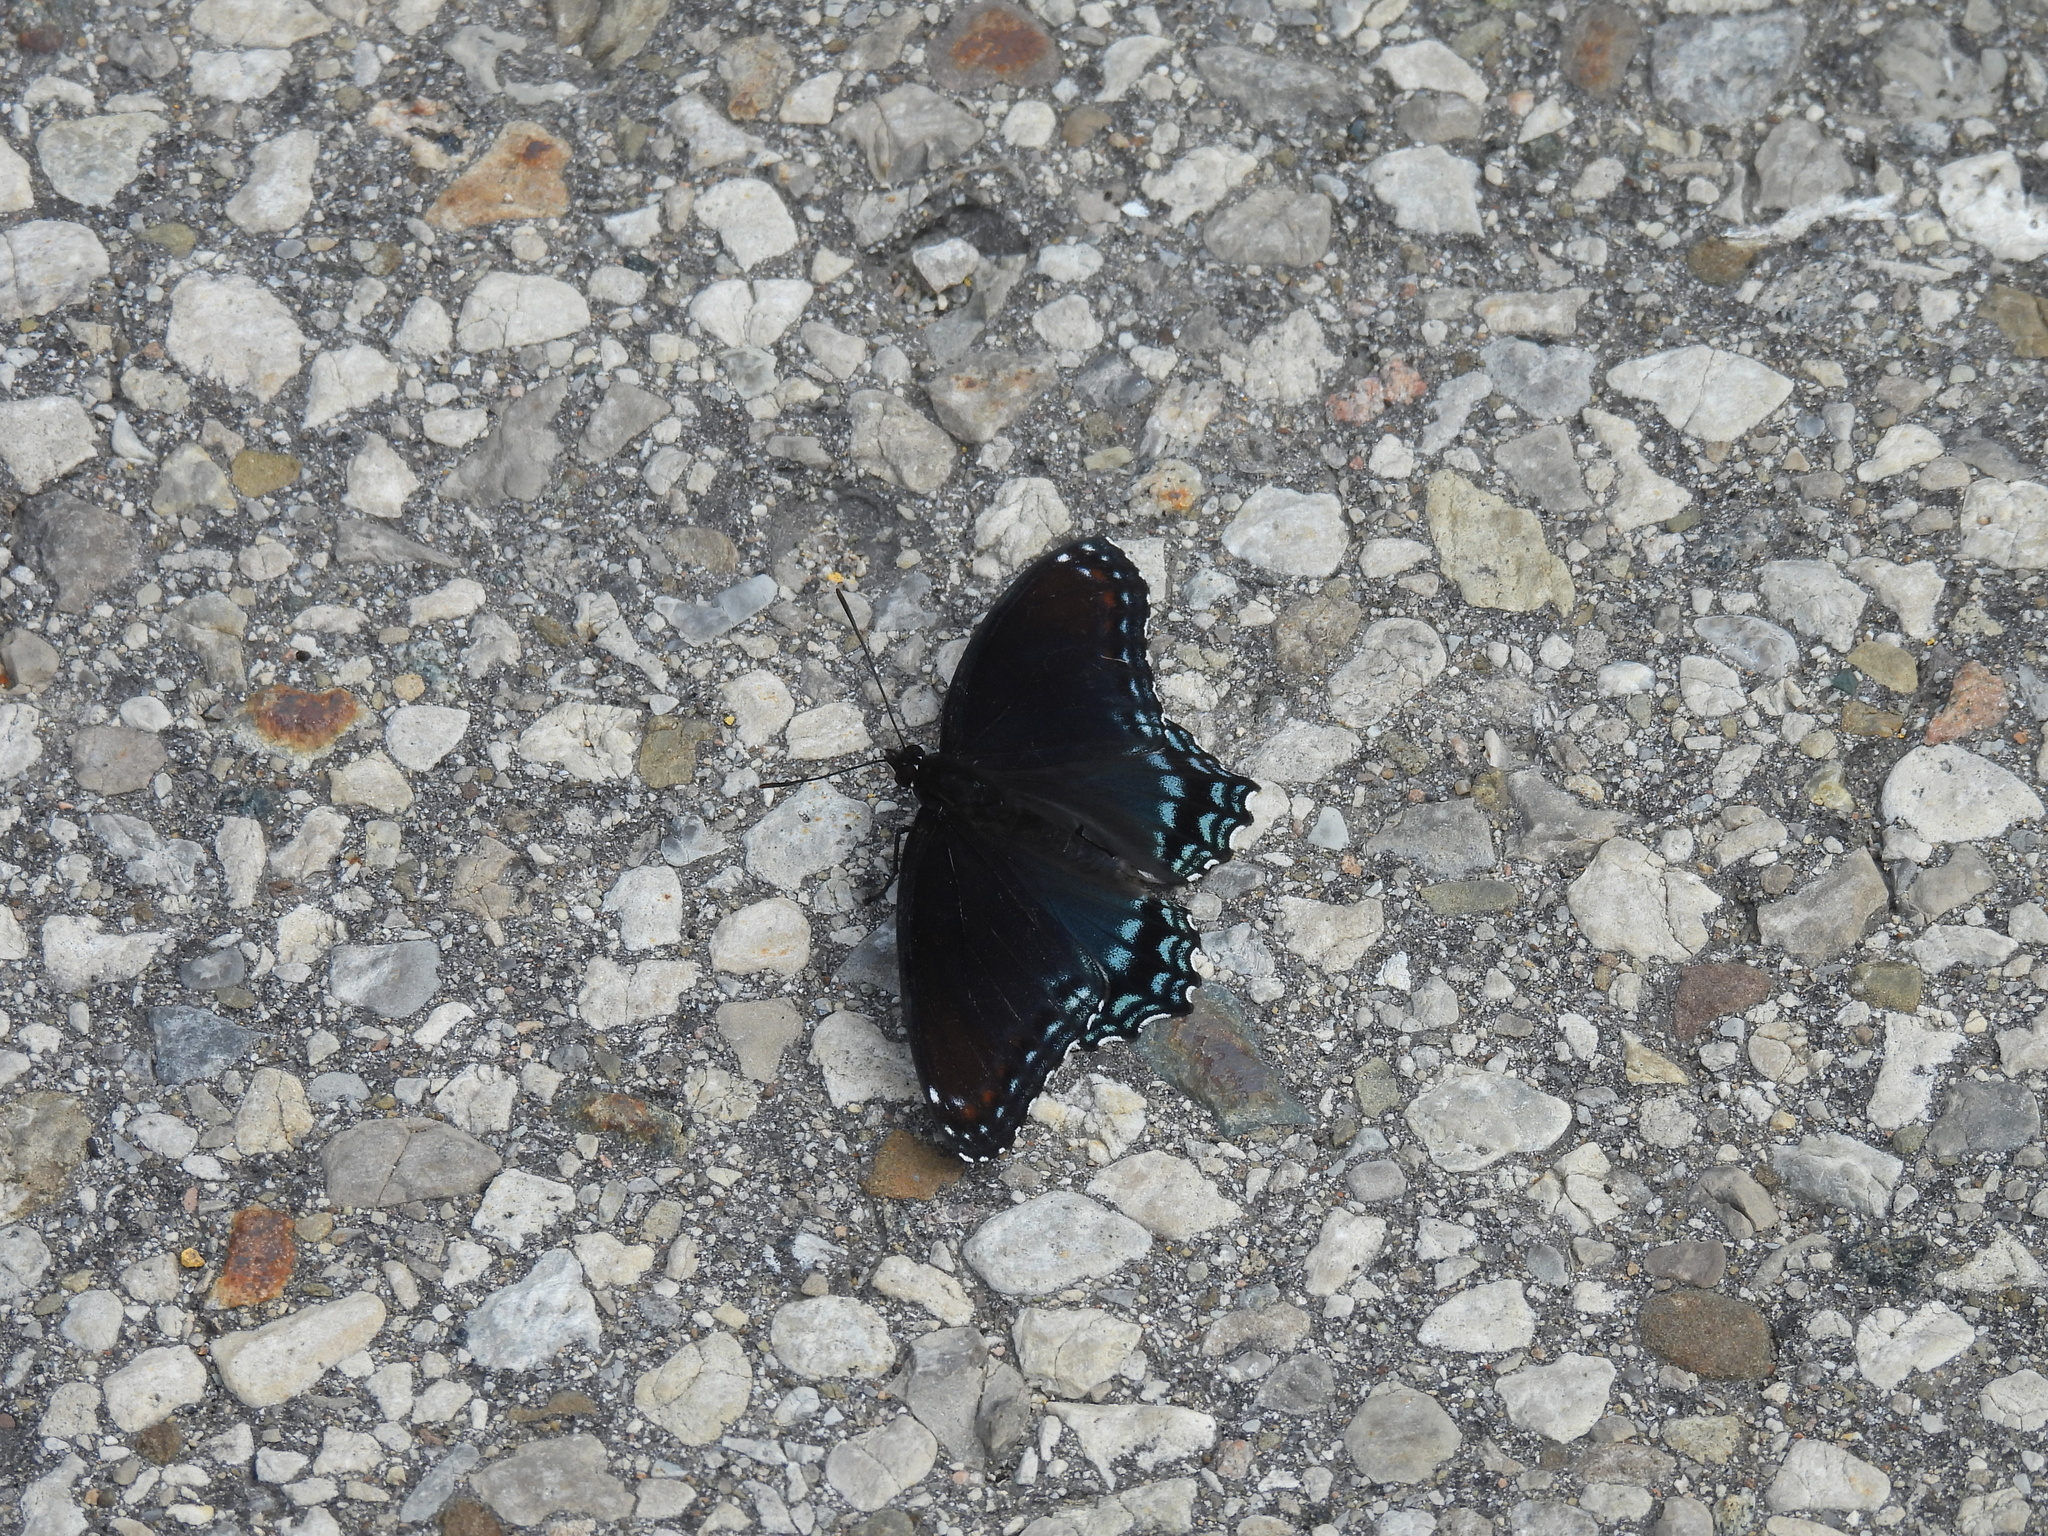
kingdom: Animalia
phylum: Arthropoda
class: Insecta
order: Lepidoptera
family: Nymphalidae
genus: Limenitis
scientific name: Limenitis astyanax
